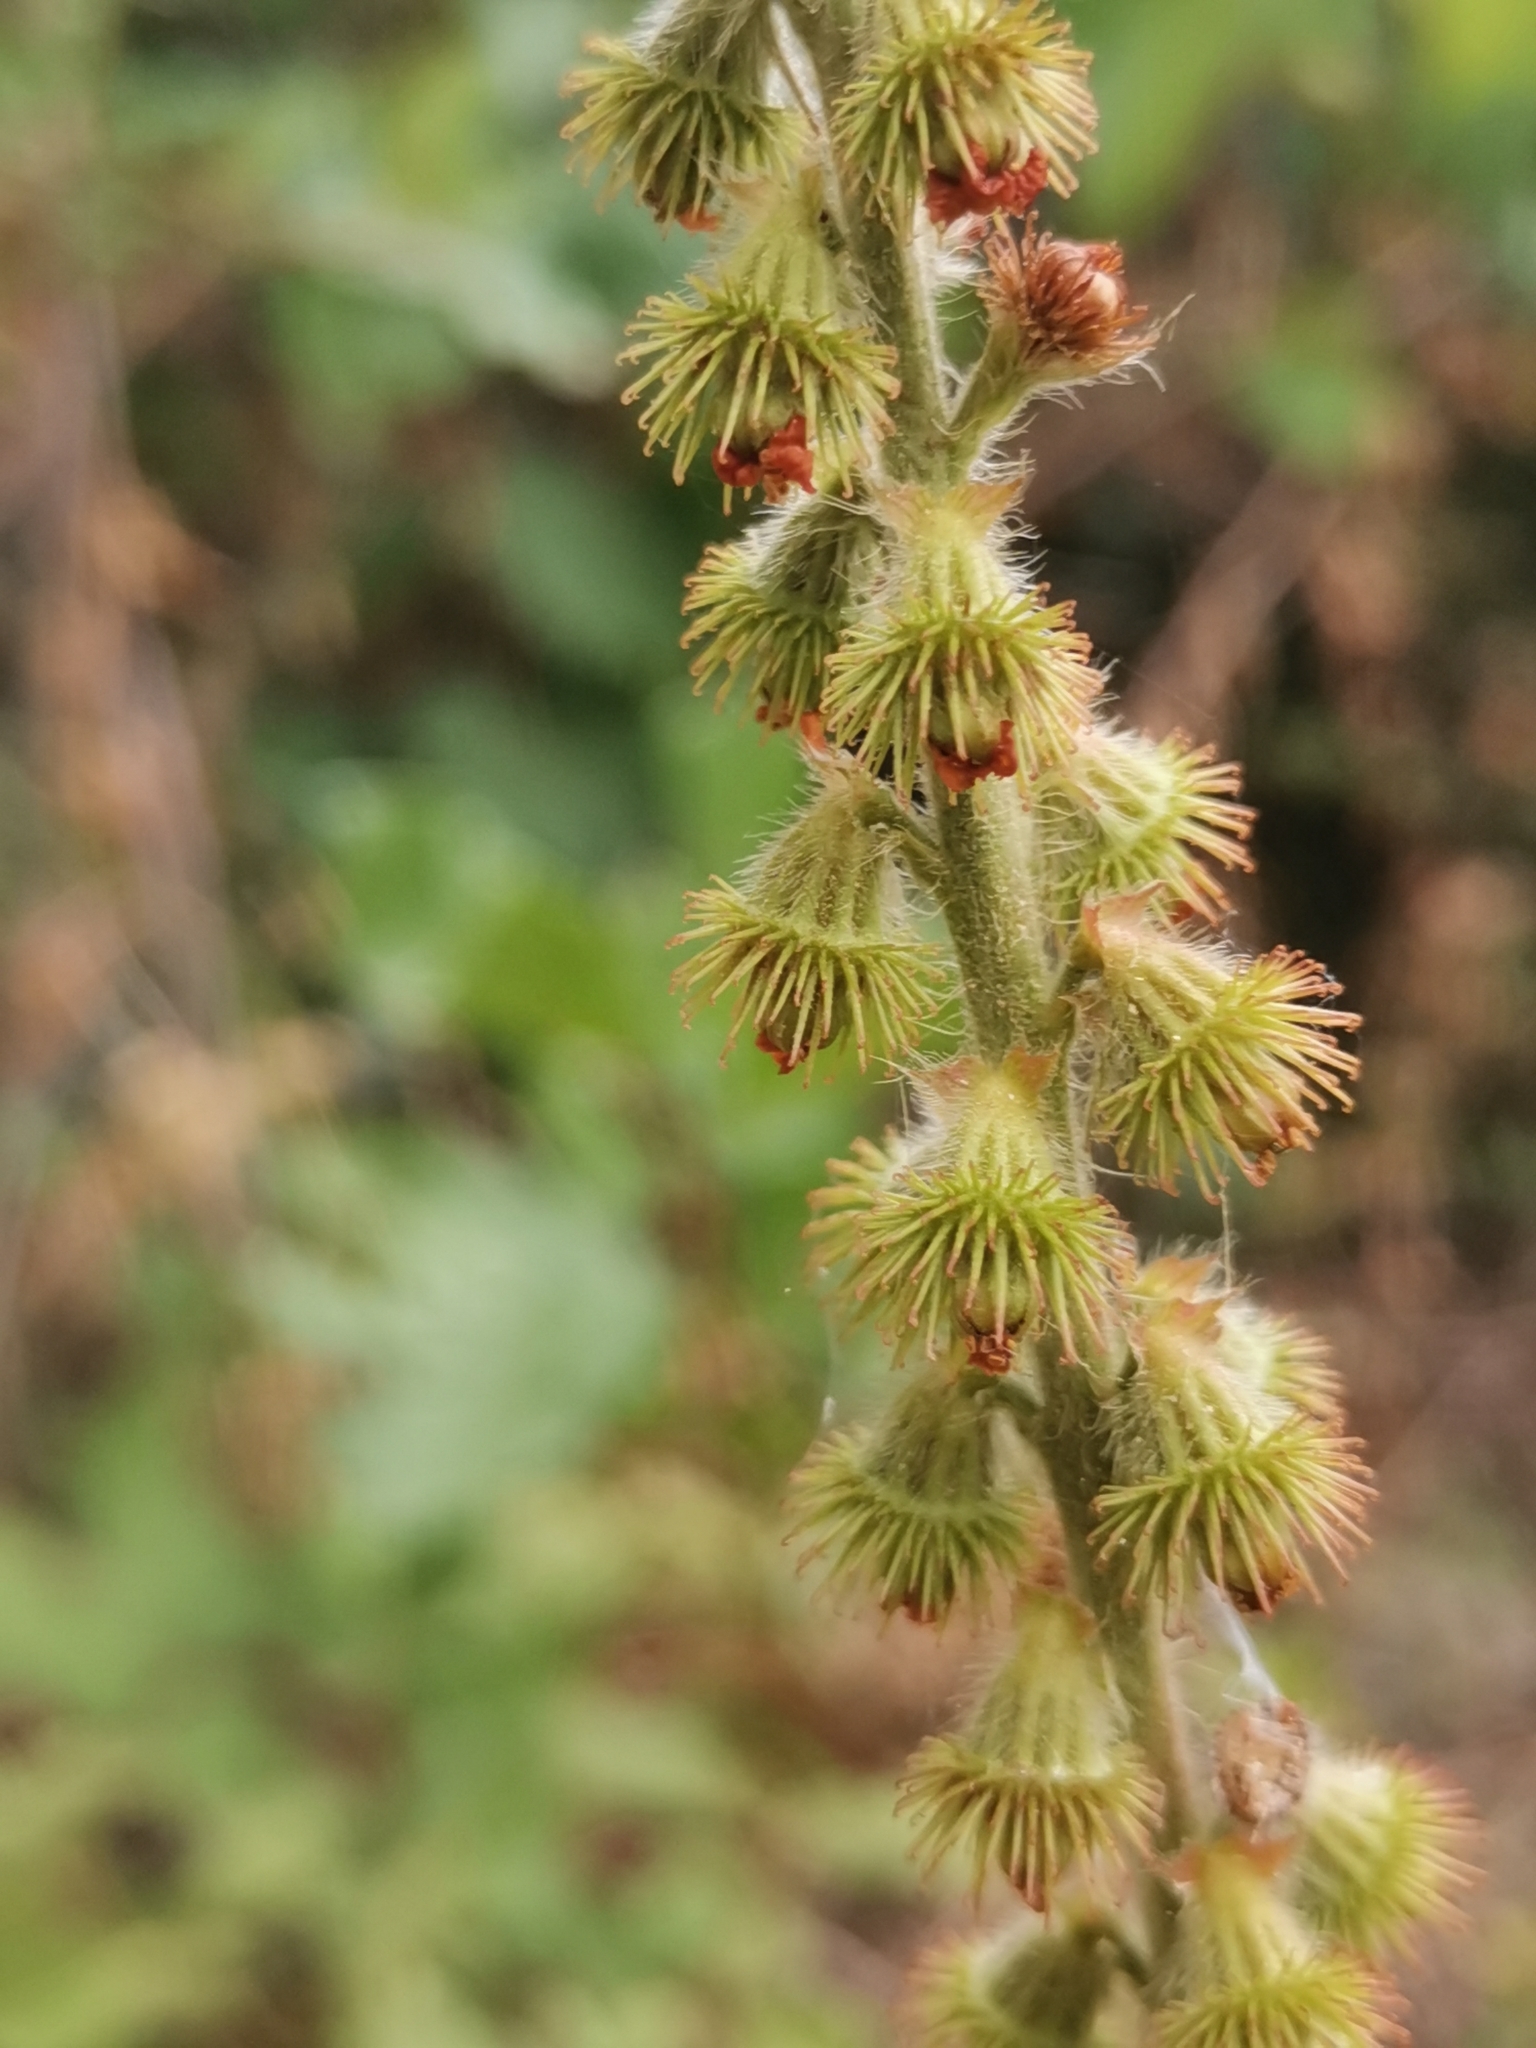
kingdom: Plantae
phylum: Tracheophyta
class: Magnoliopsida
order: Rosales
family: Rosaceae
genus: Agrimonia
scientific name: Agrimonia eupatoria
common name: Agrimony
